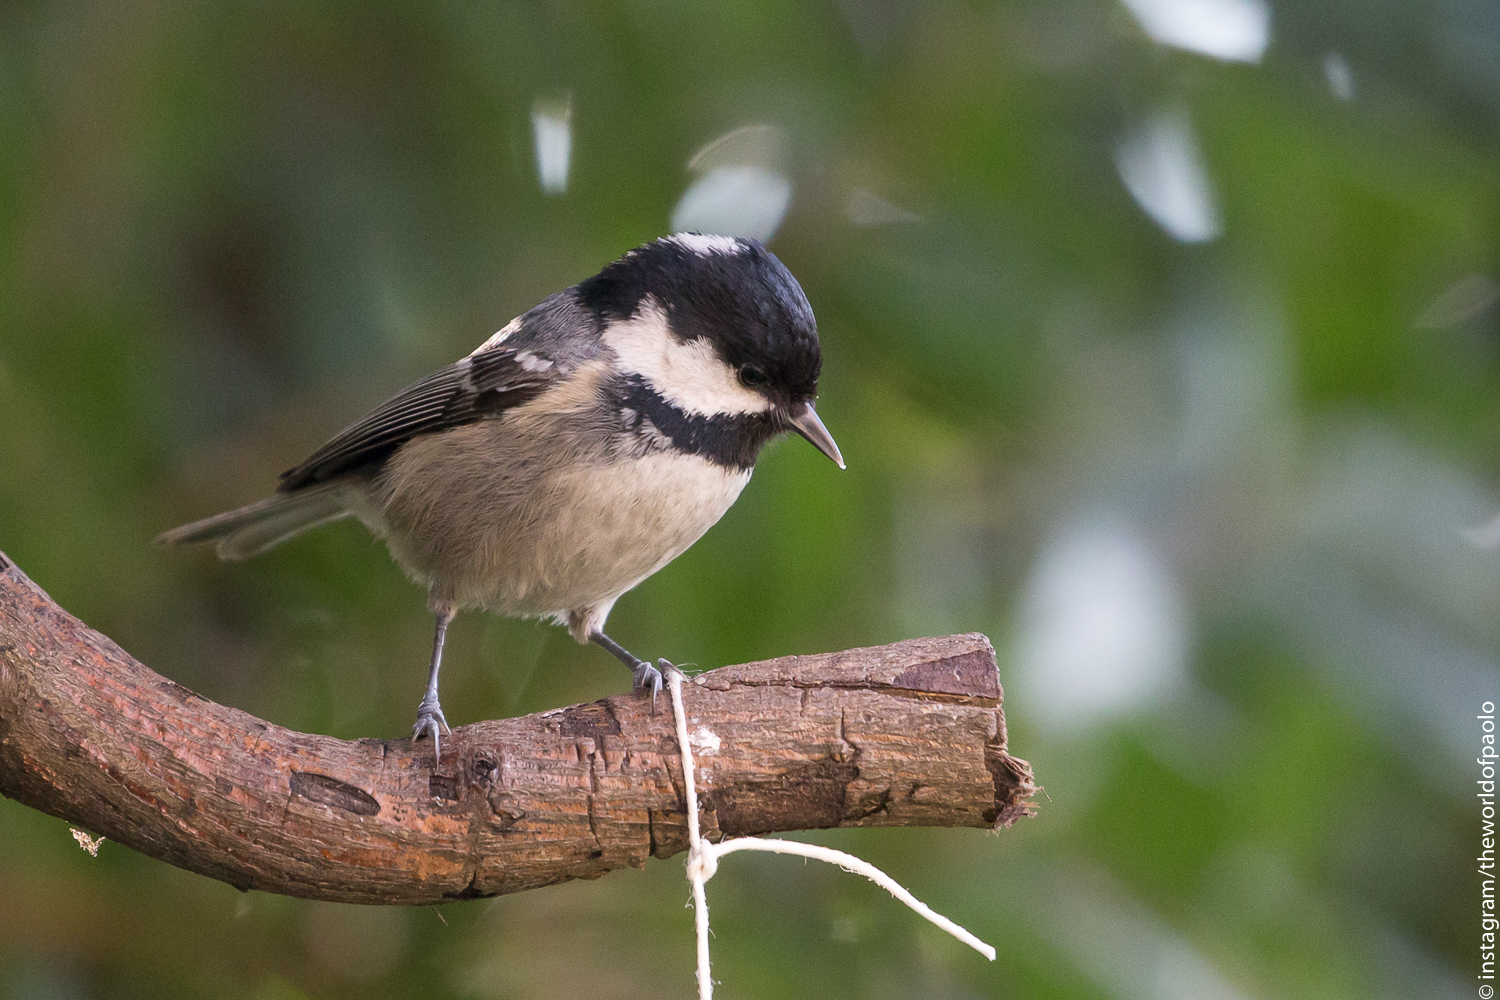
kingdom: Animalia
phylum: Chordata
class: Aves
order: Passeriformes
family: Paridae
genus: Periparus
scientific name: Periparus ater
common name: Coal tit
